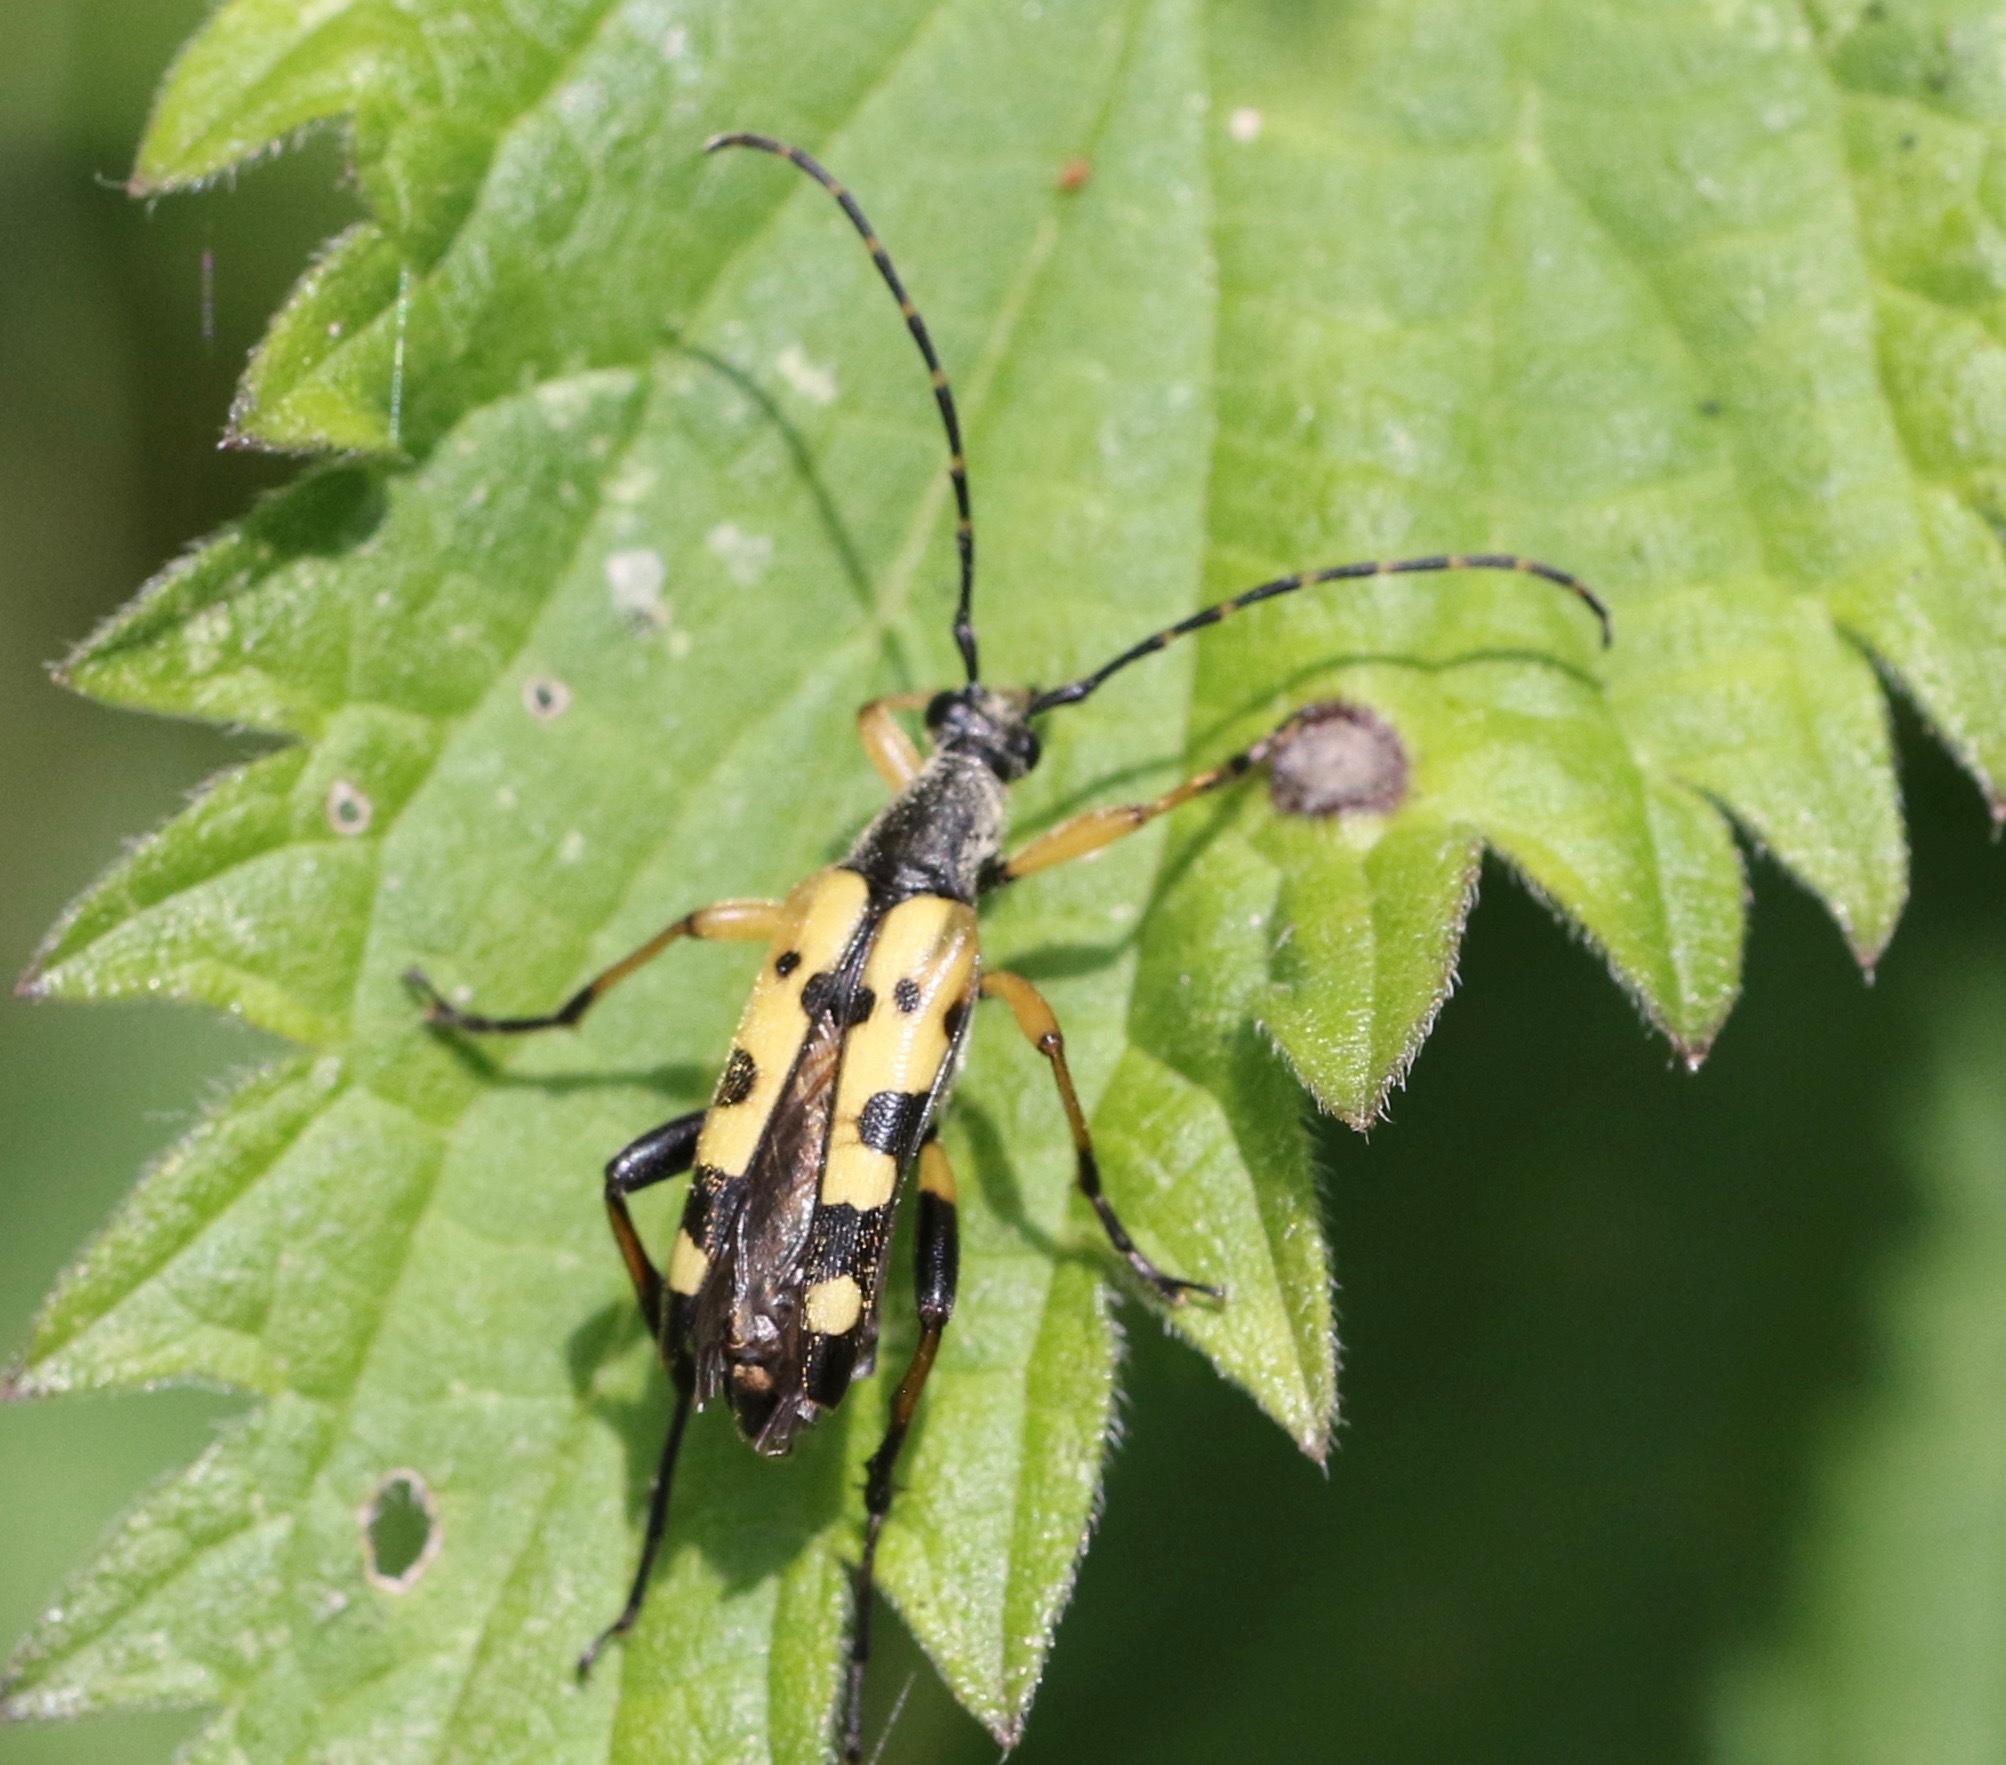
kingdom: Animalia
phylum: Arthropoda
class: Insecta
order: Coleoptera
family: Cerambycidae
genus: Rutpela
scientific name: Rutpela maculata
